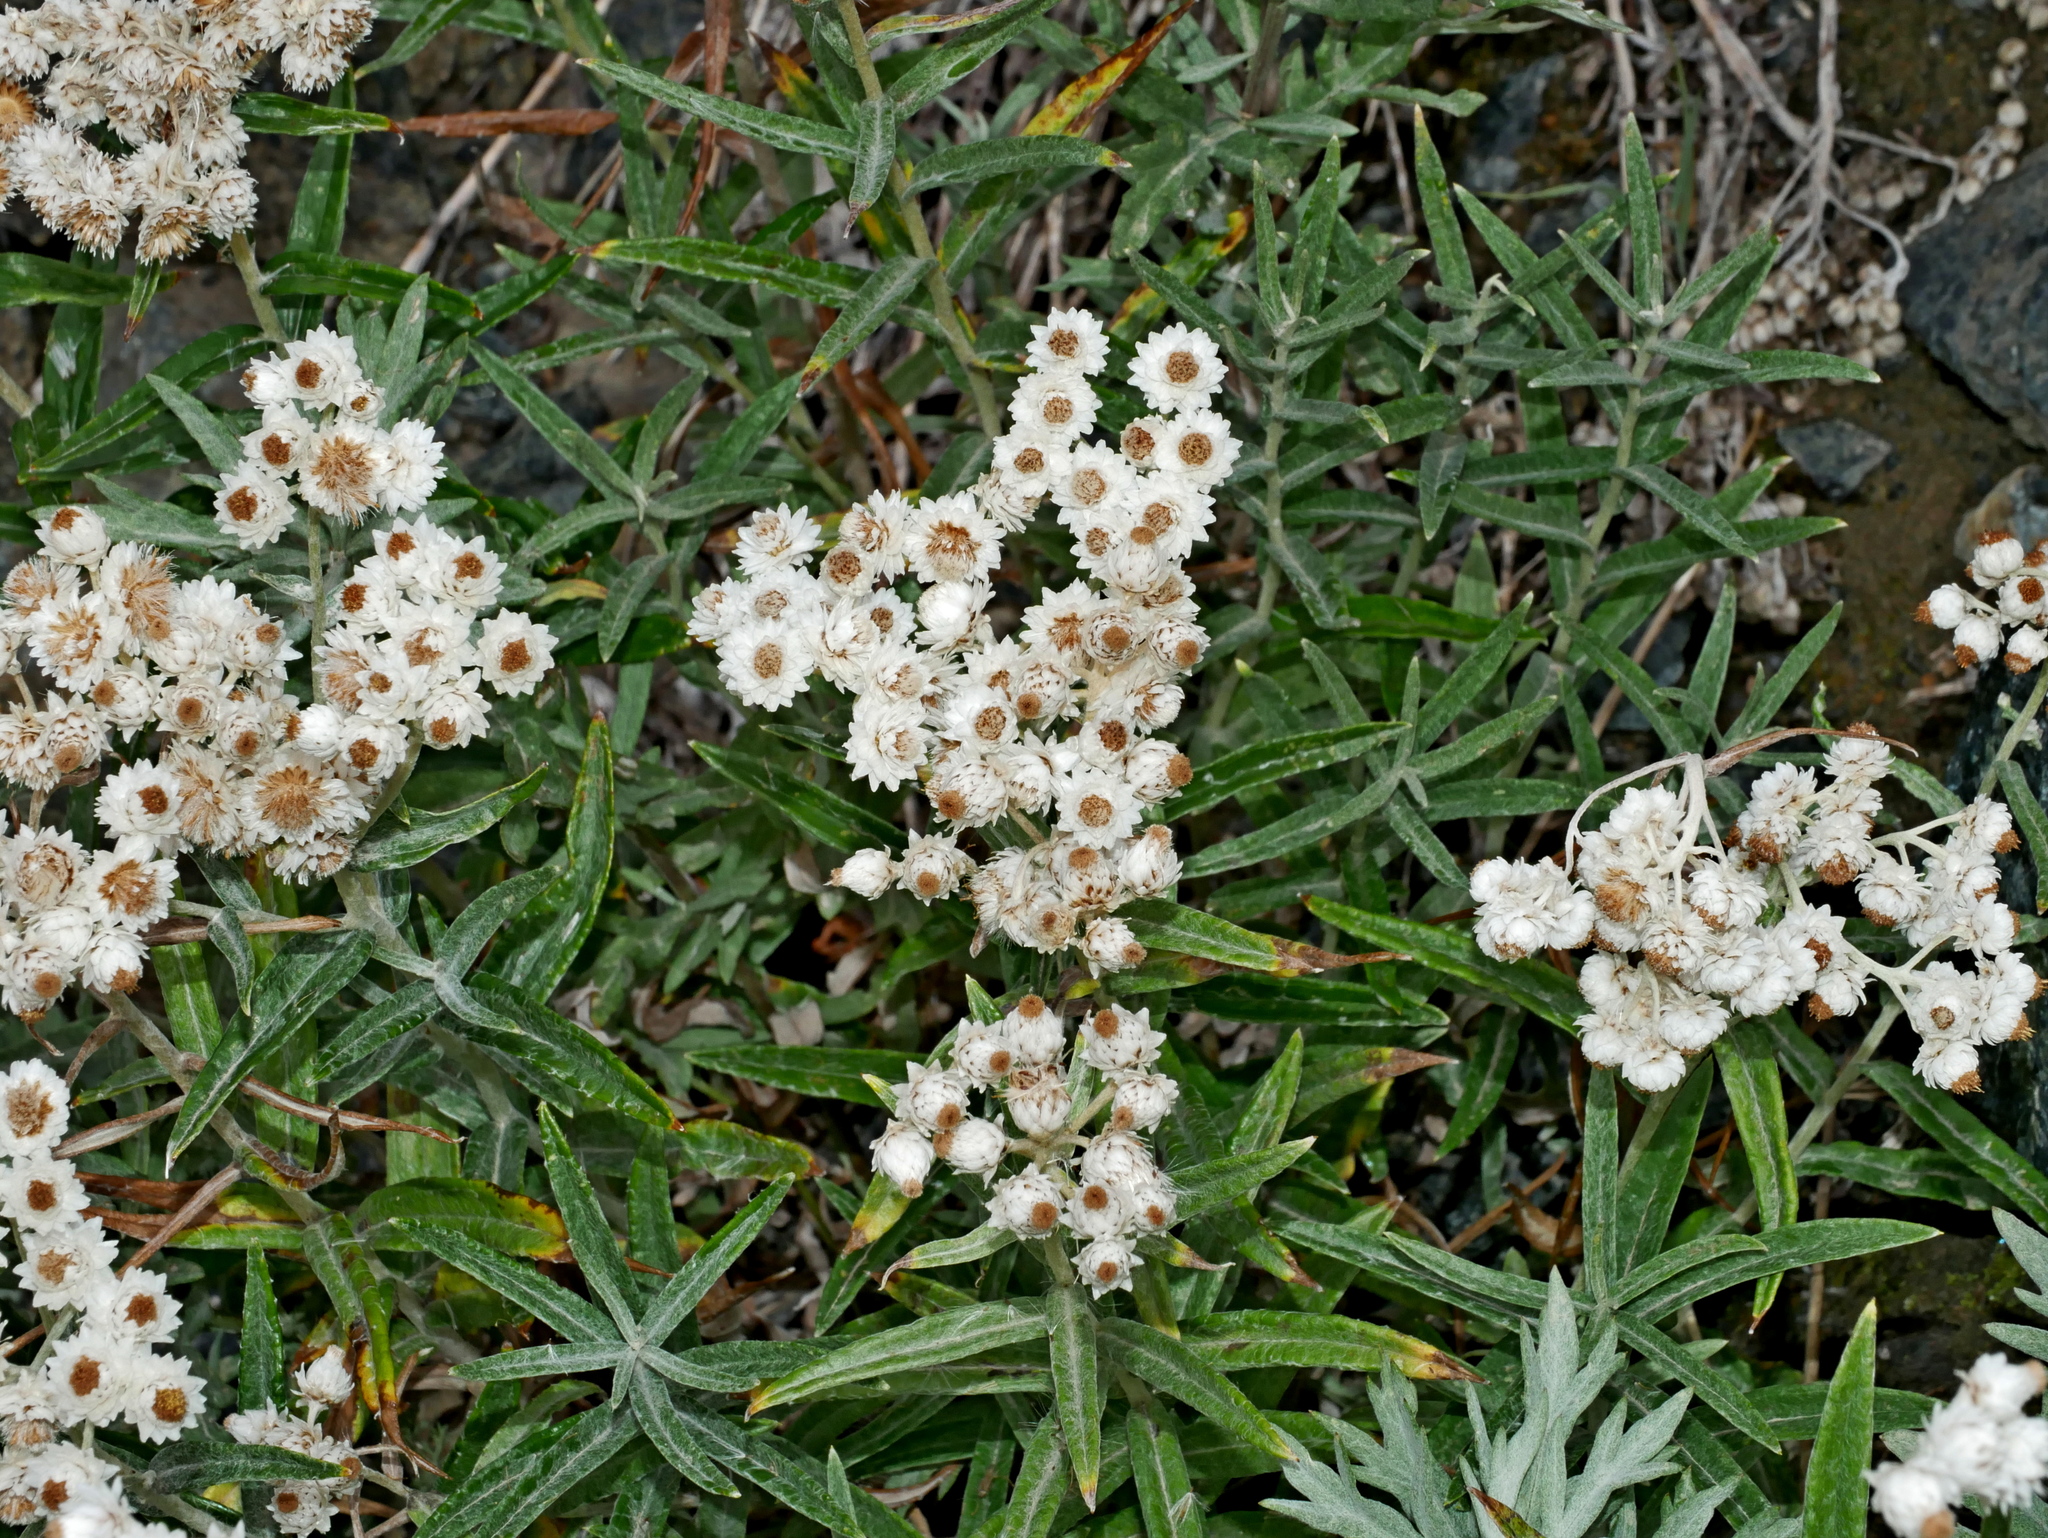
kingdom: Plantae
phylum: Tracheophyta
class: Magnoliopsida
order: Asterales
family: Asteraceae
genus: Anaphalis
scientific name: Anaphalis margaritacea
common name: Pearly everlasting
